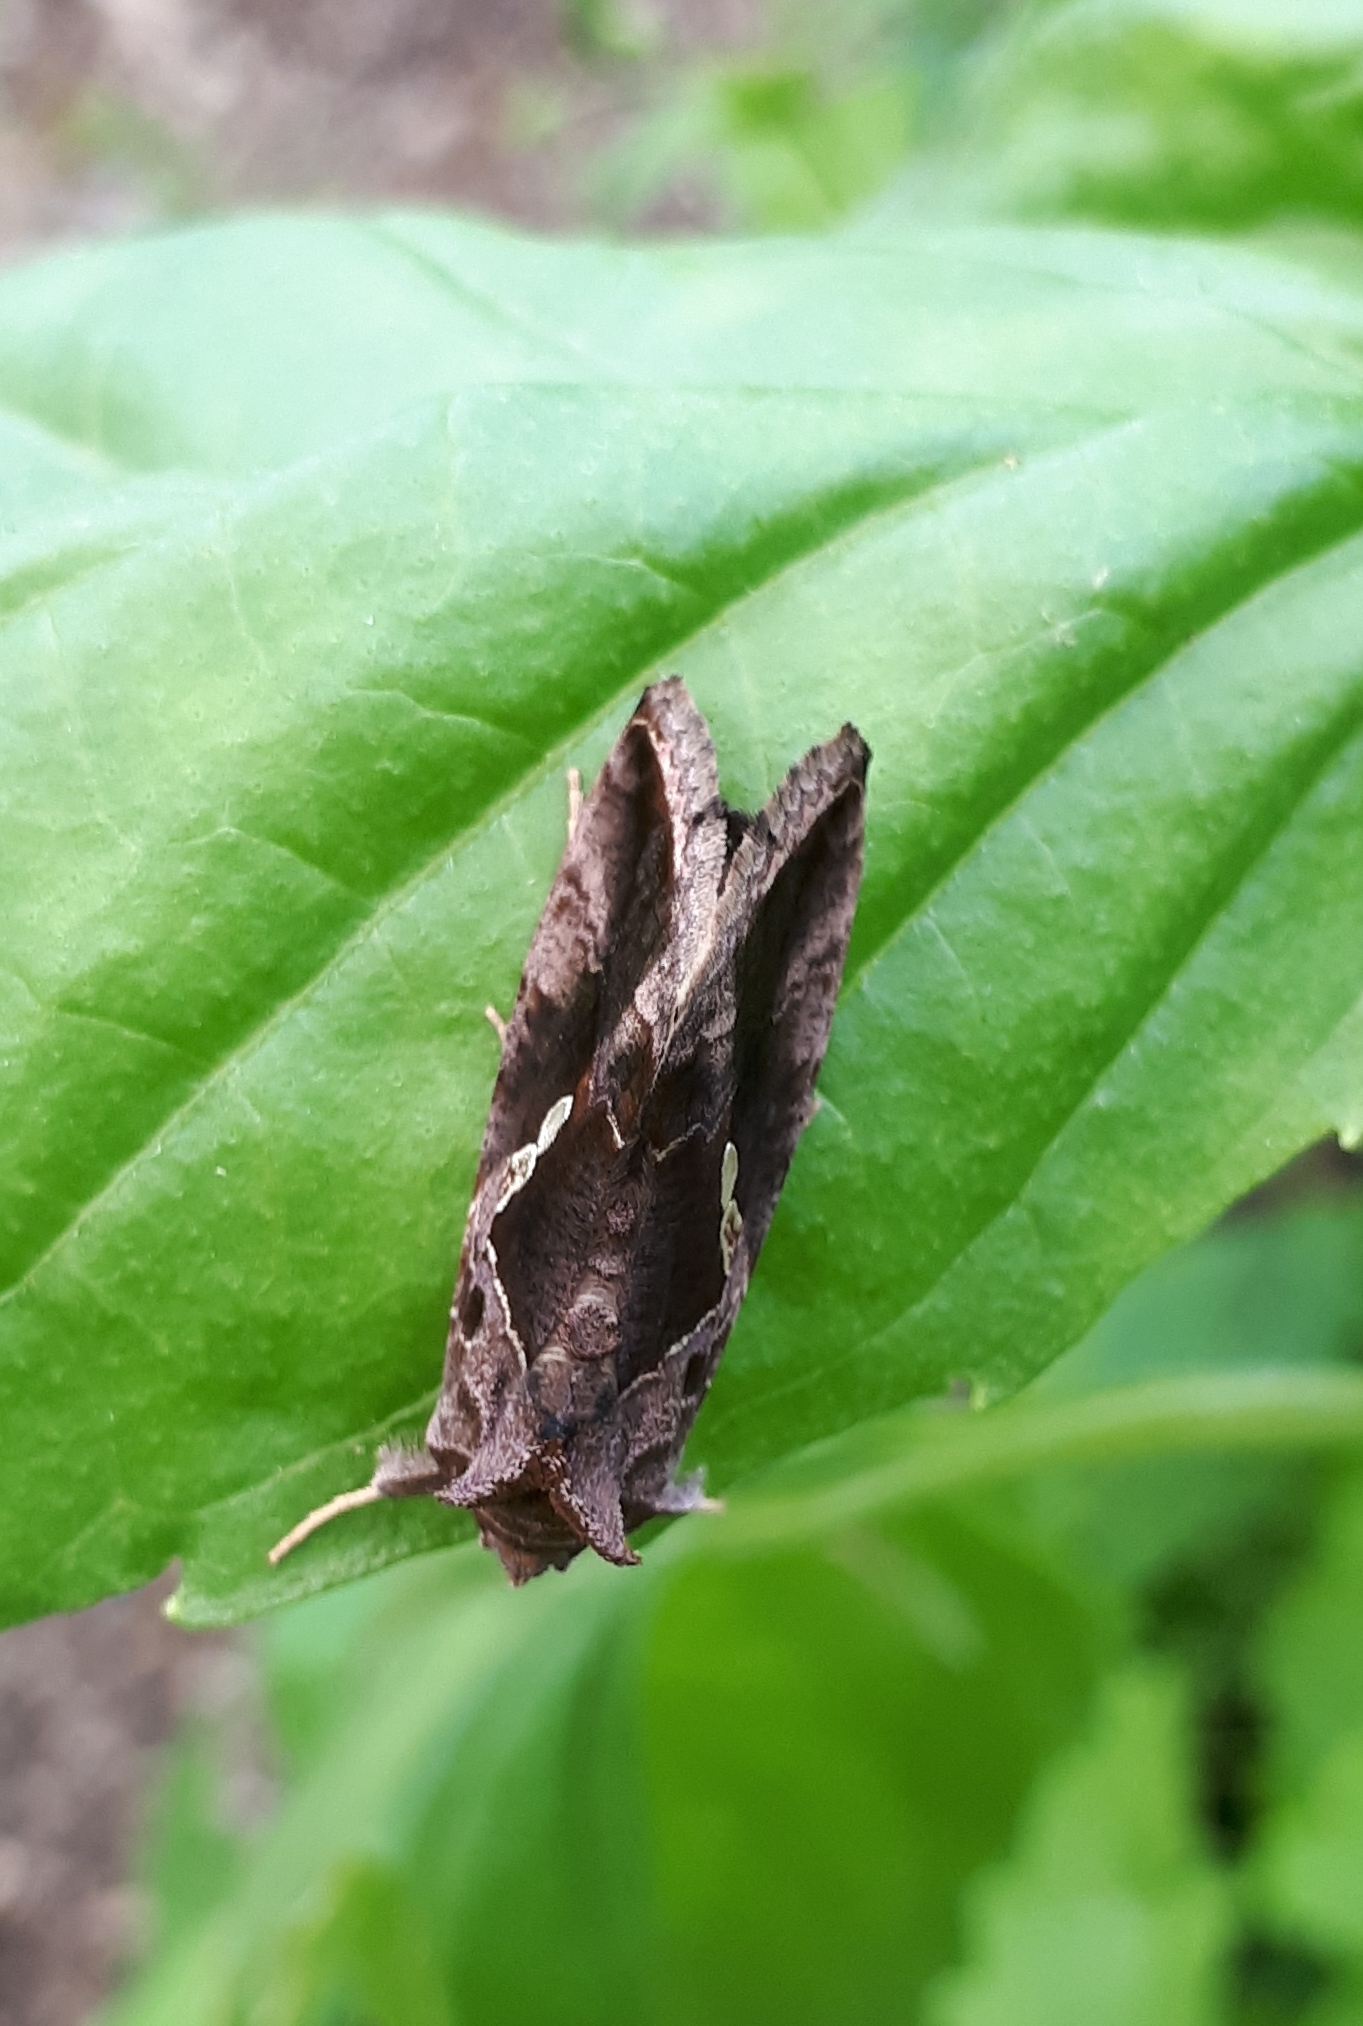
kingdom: Animalia
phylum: Arthropoda
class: Insecta
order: Lepidoptera
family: Noctuidae
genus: Chrysodeixis
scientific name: Chrysodeixis eriosoma
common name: Green garden looper
